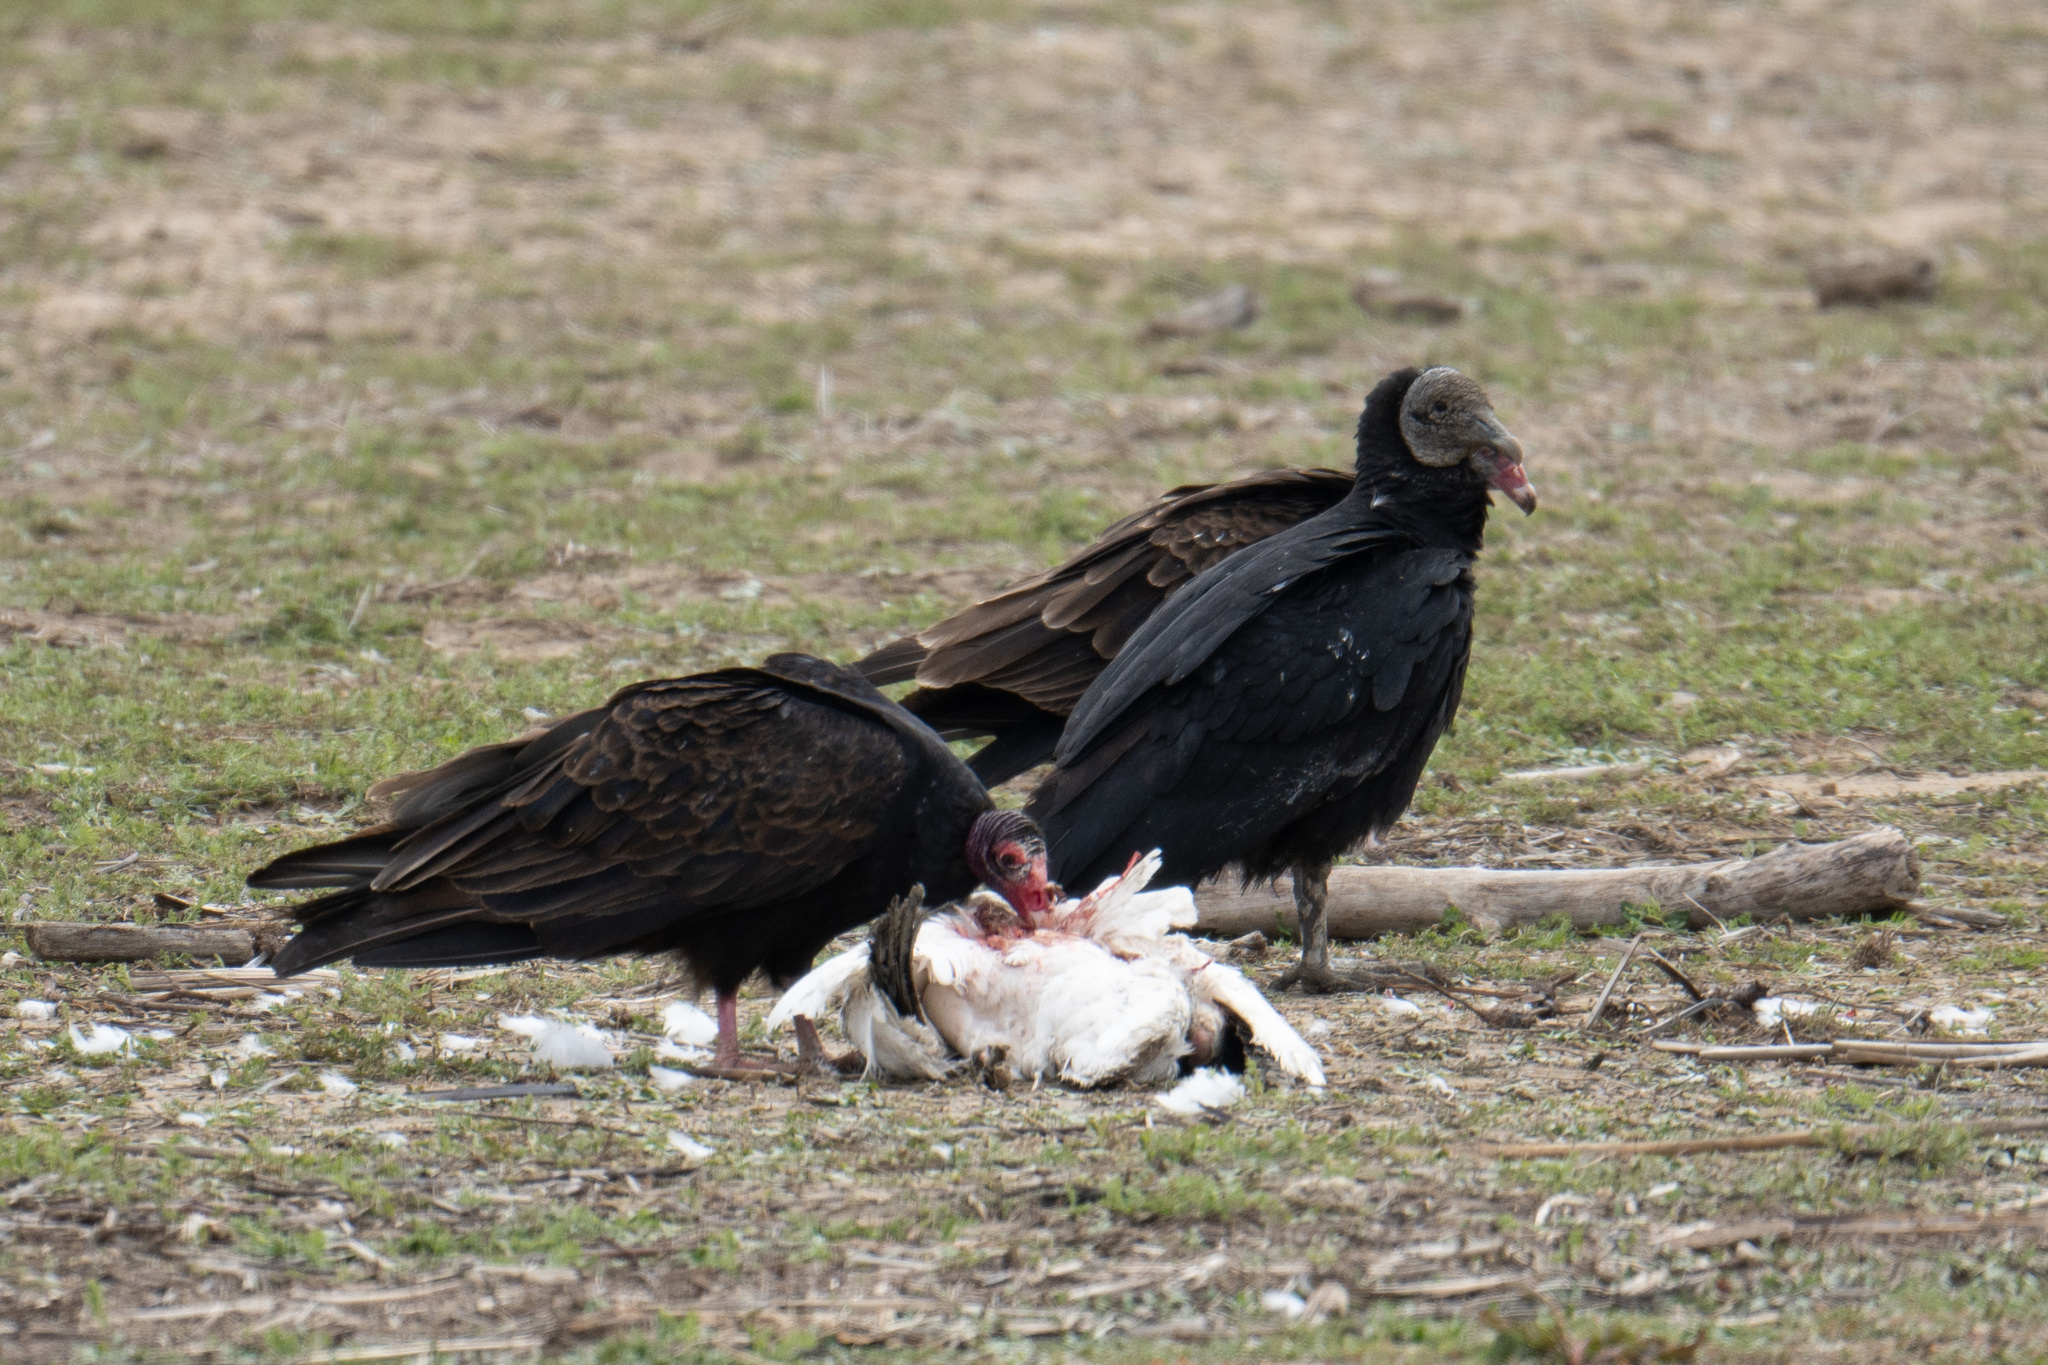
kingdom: Animalia
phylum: Chordata
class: Aves
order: Accipitriformes
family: Cathartidae
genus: Coragyps
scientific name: Coragyps atratus
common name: Black vulture
